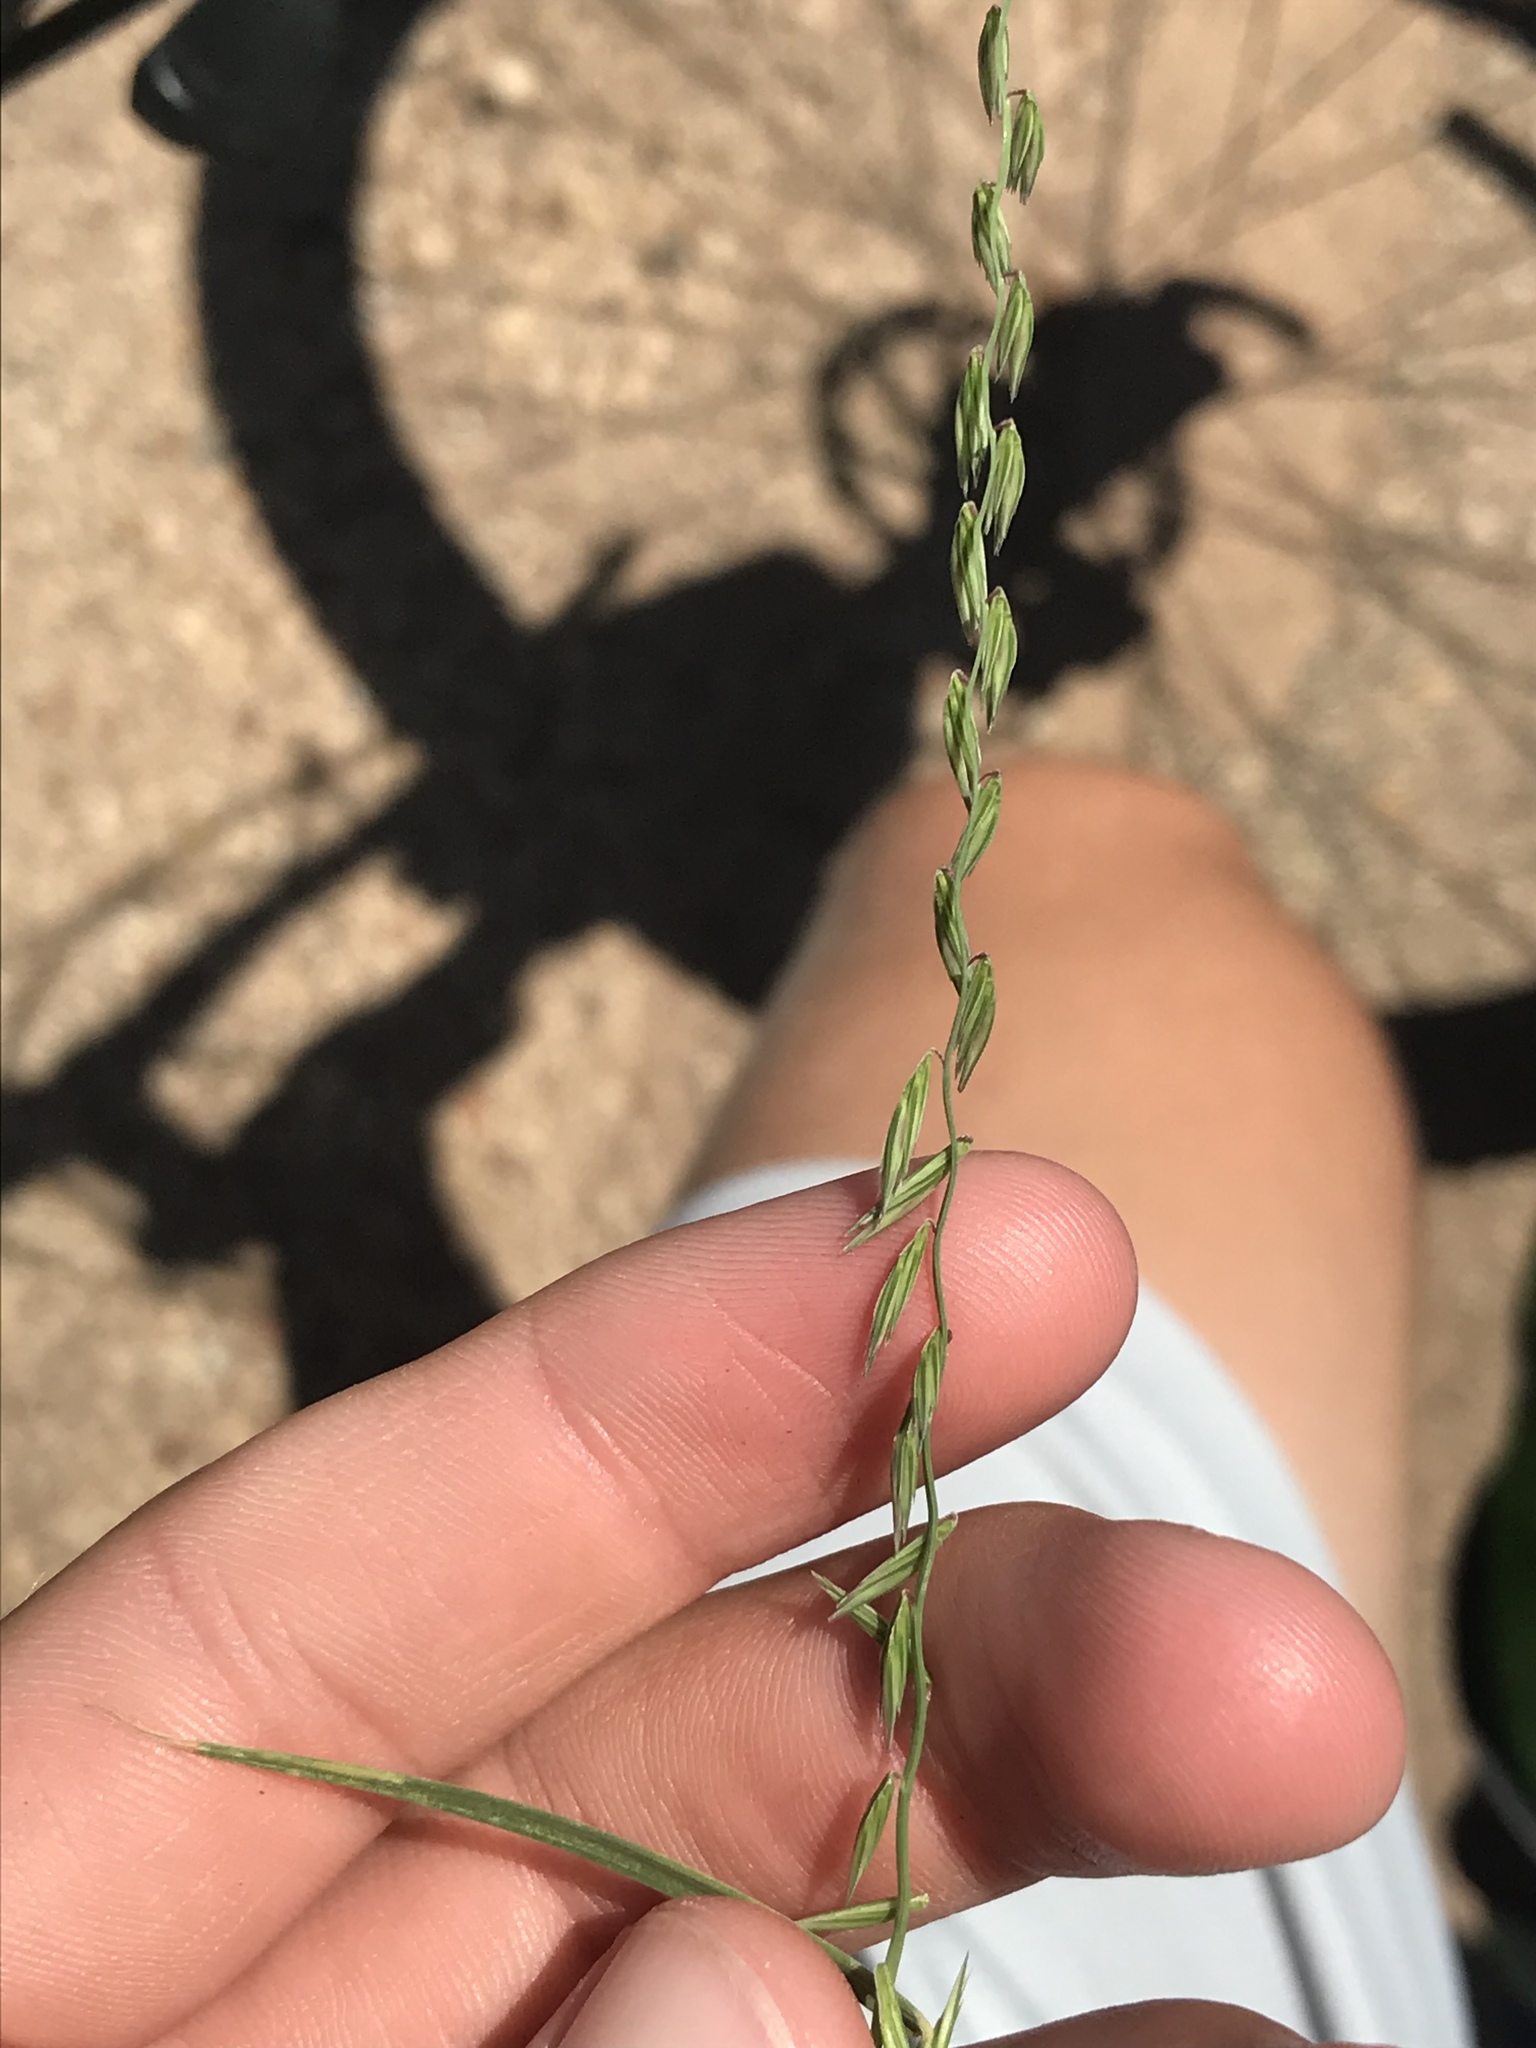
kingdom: Plantae
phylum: Tracheophyta
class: Liliopsida
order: Poales
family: Poaceae
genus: Bouteloua
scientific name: Bouteloua curtipendula
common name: Side-oats grama
